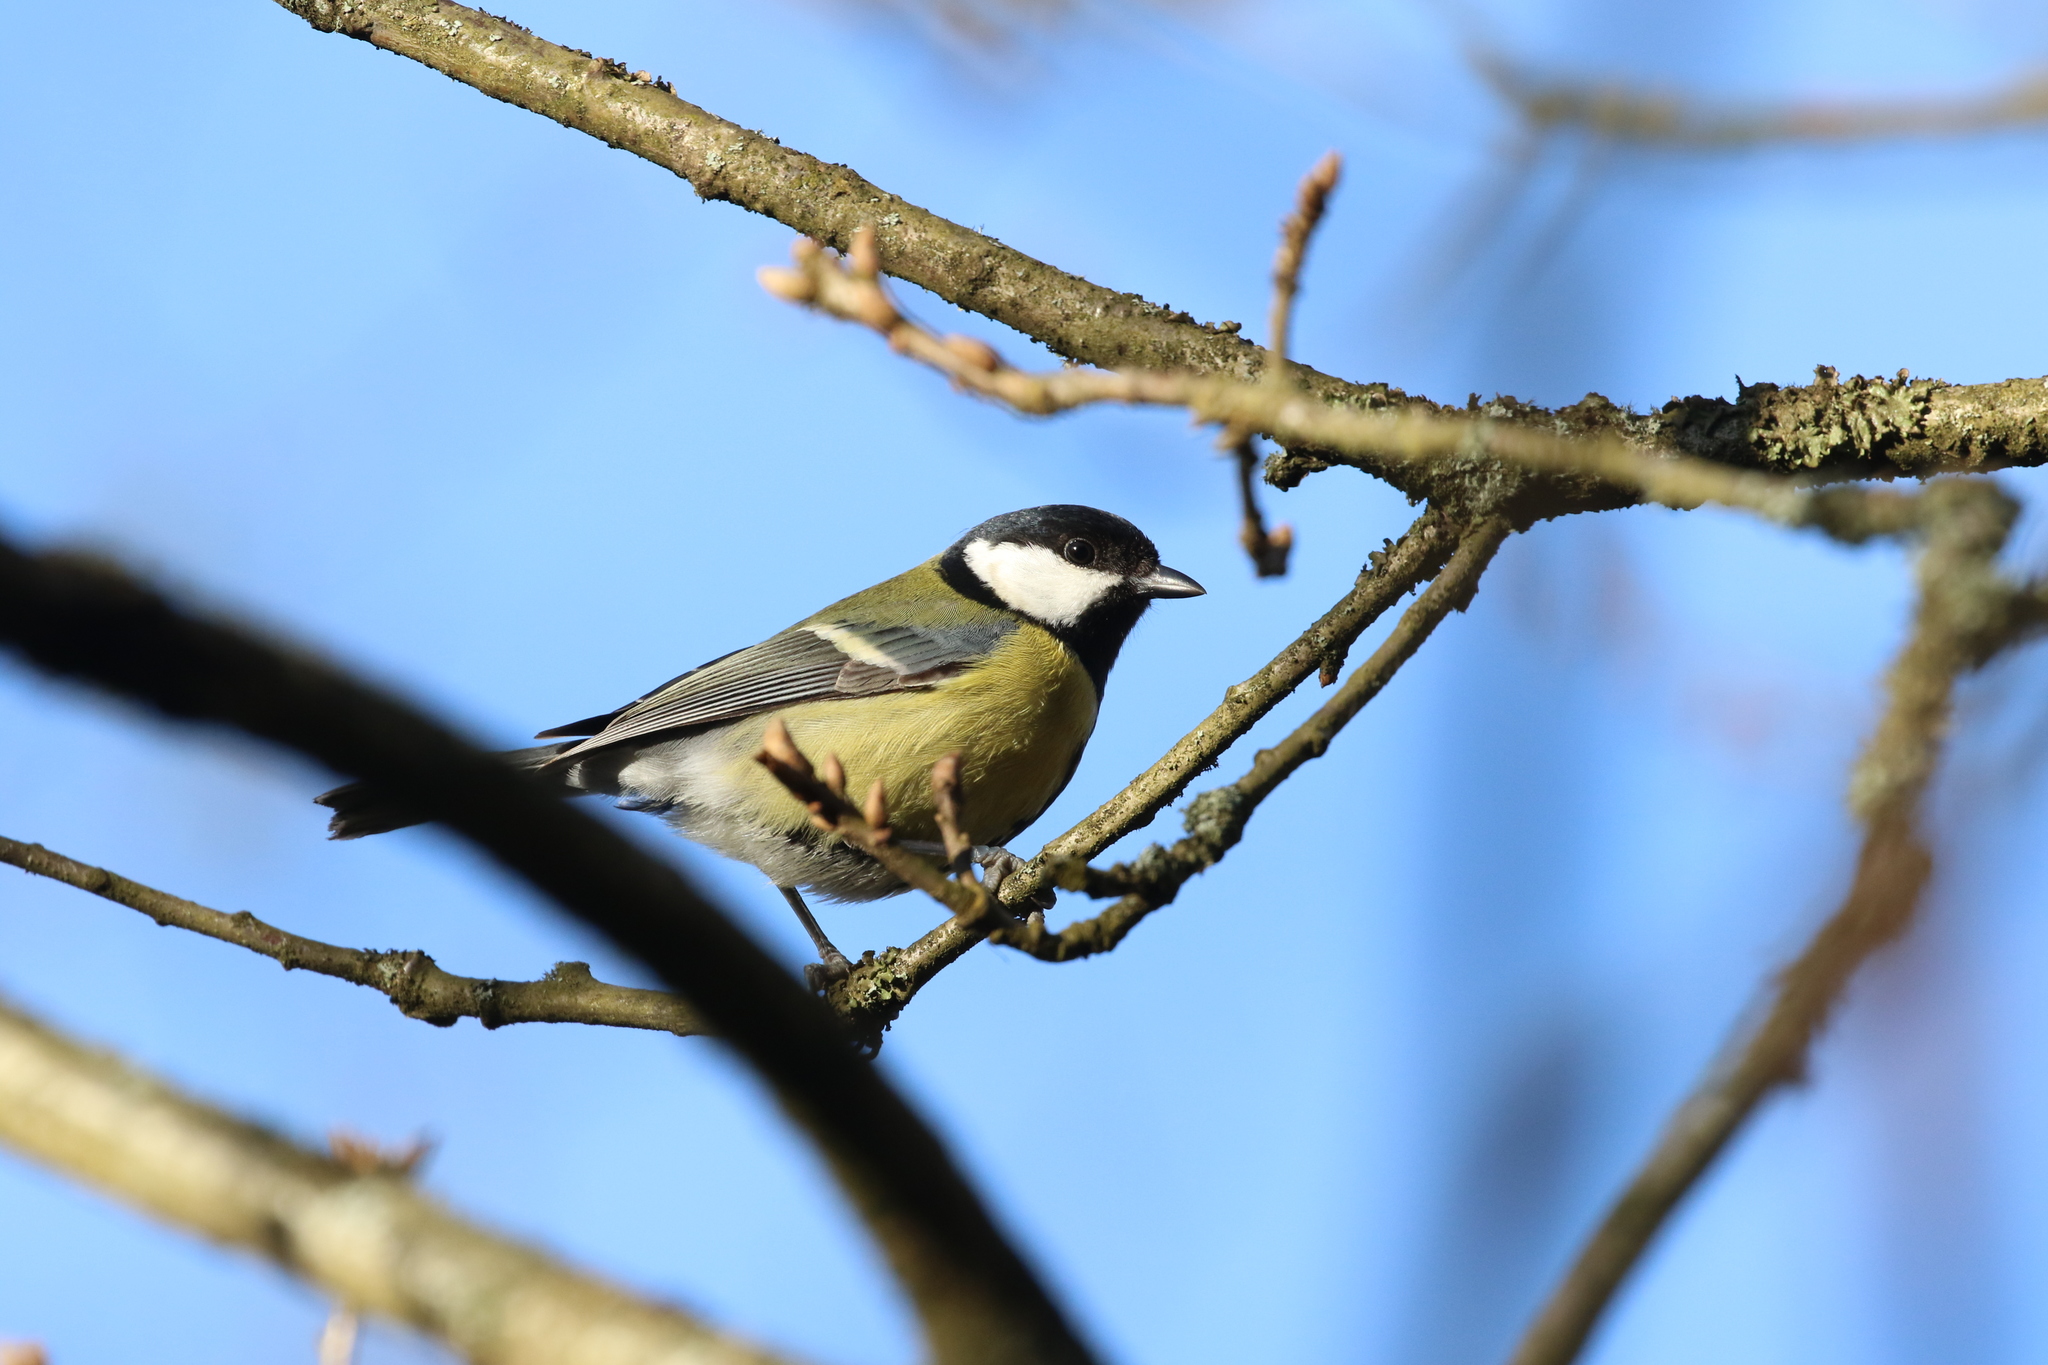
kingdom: Animalia
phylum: Chordata
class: Aves
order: Passeriformes
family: Paridae
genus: Parus
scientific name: Parus major
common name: Great tit
